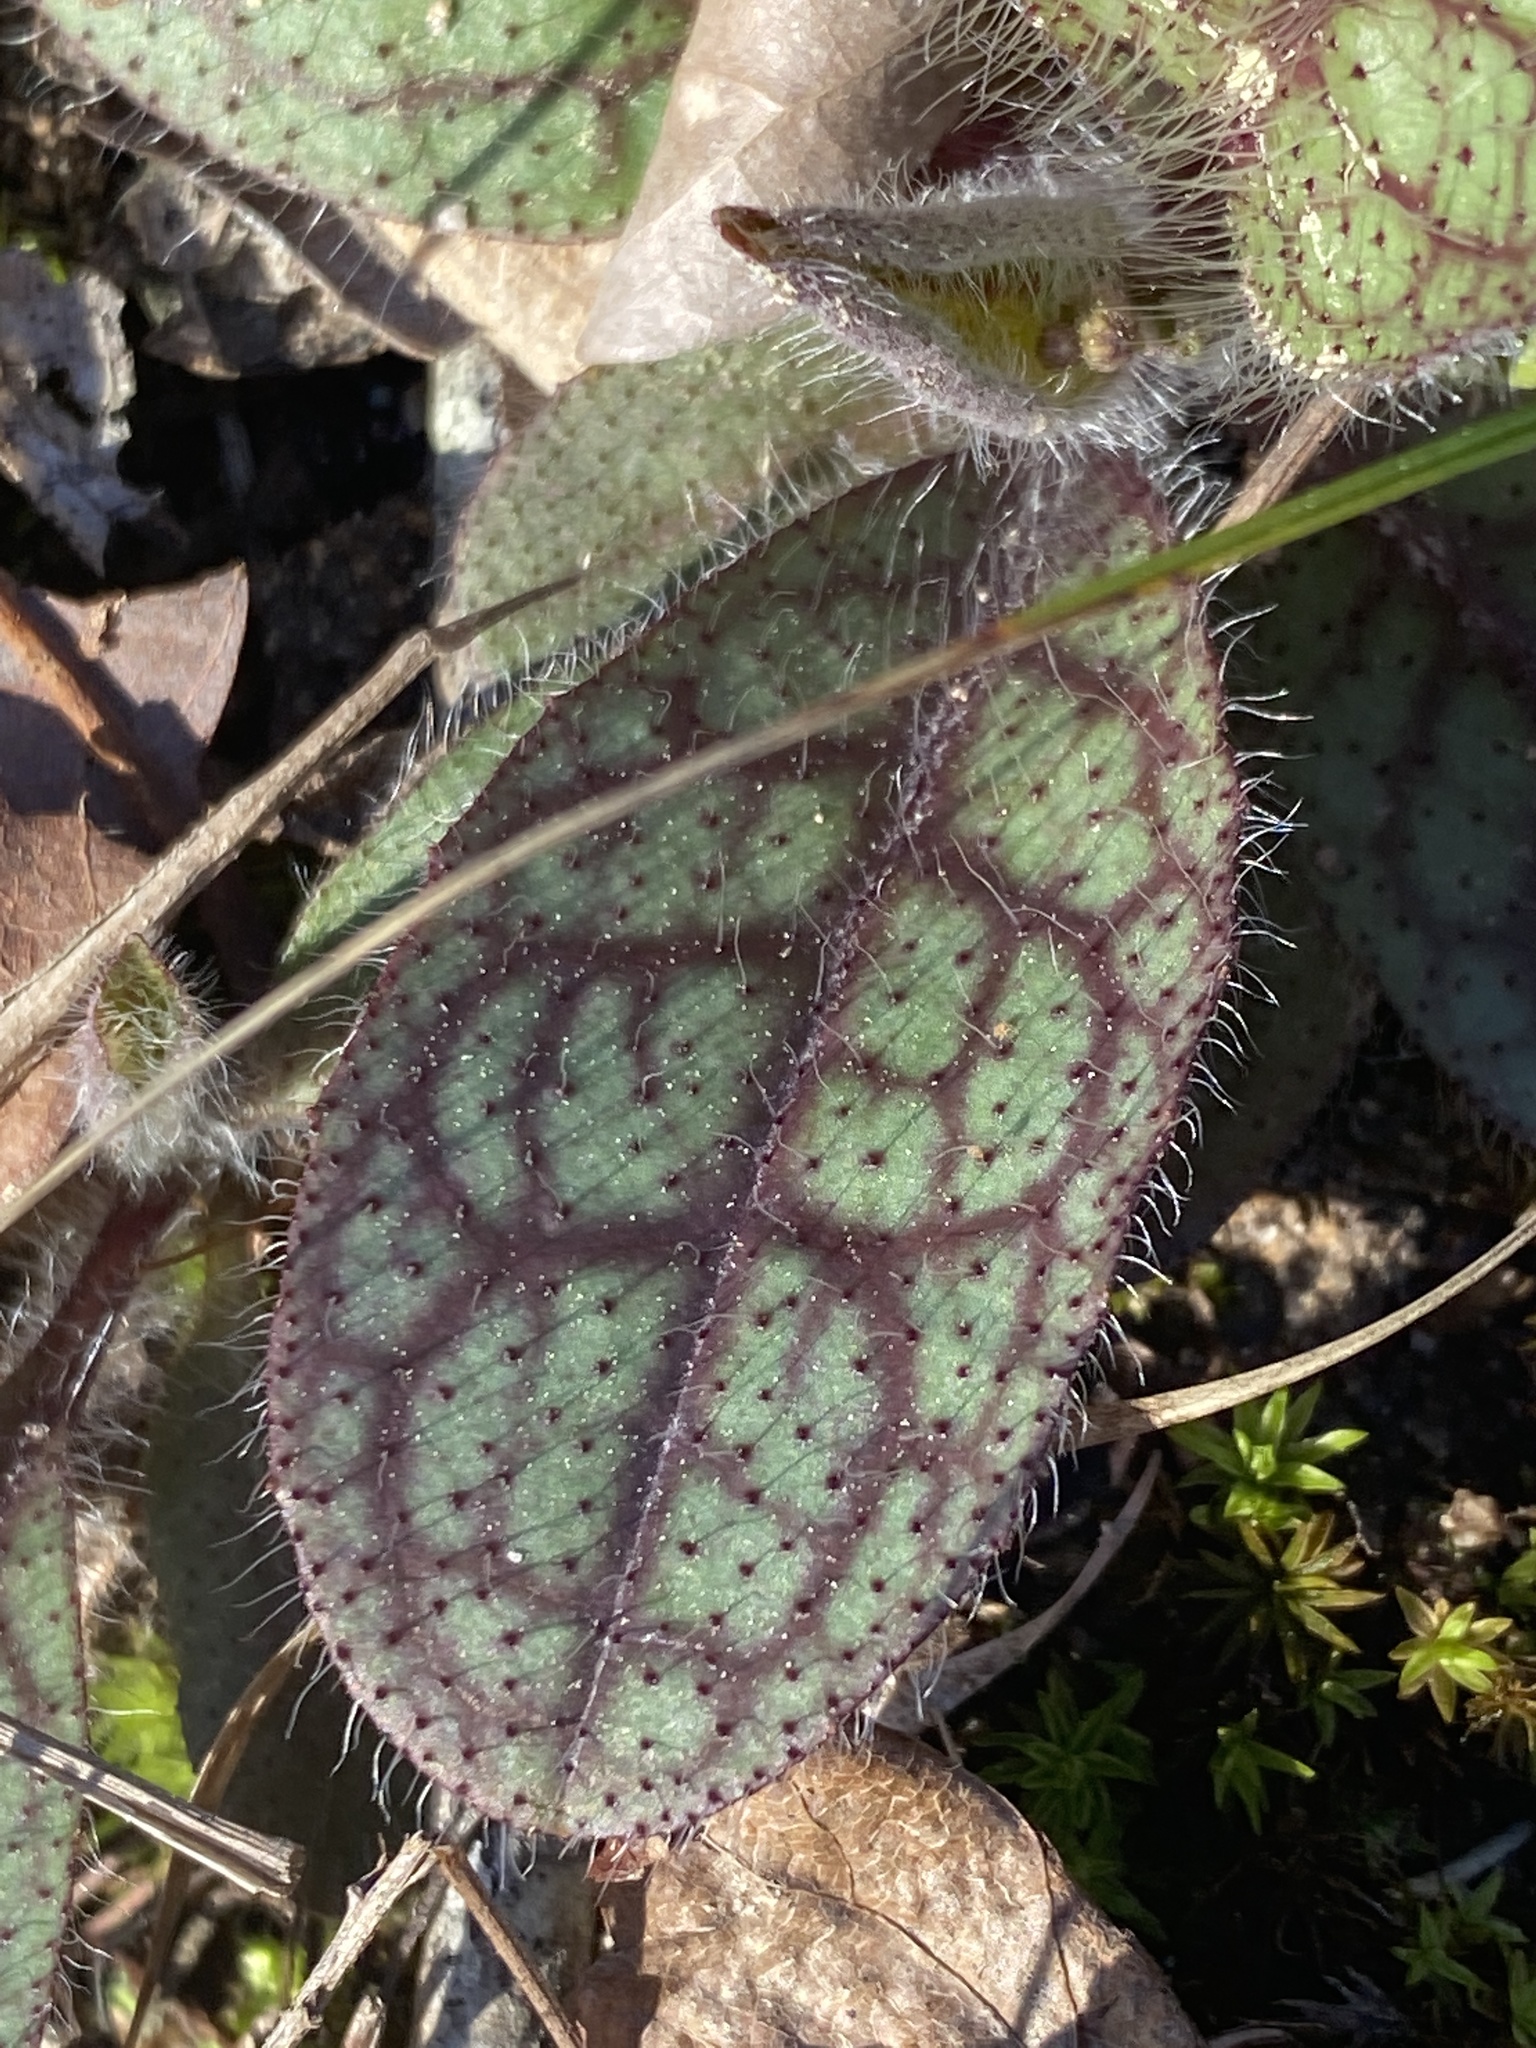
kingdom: Plantae
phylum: Tracheophyta
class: Magnoliopsida
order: Asterales
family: Asteraceae
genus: Hieracium
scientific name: Hieracium venosum
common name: Rattlesnake hawkweed
